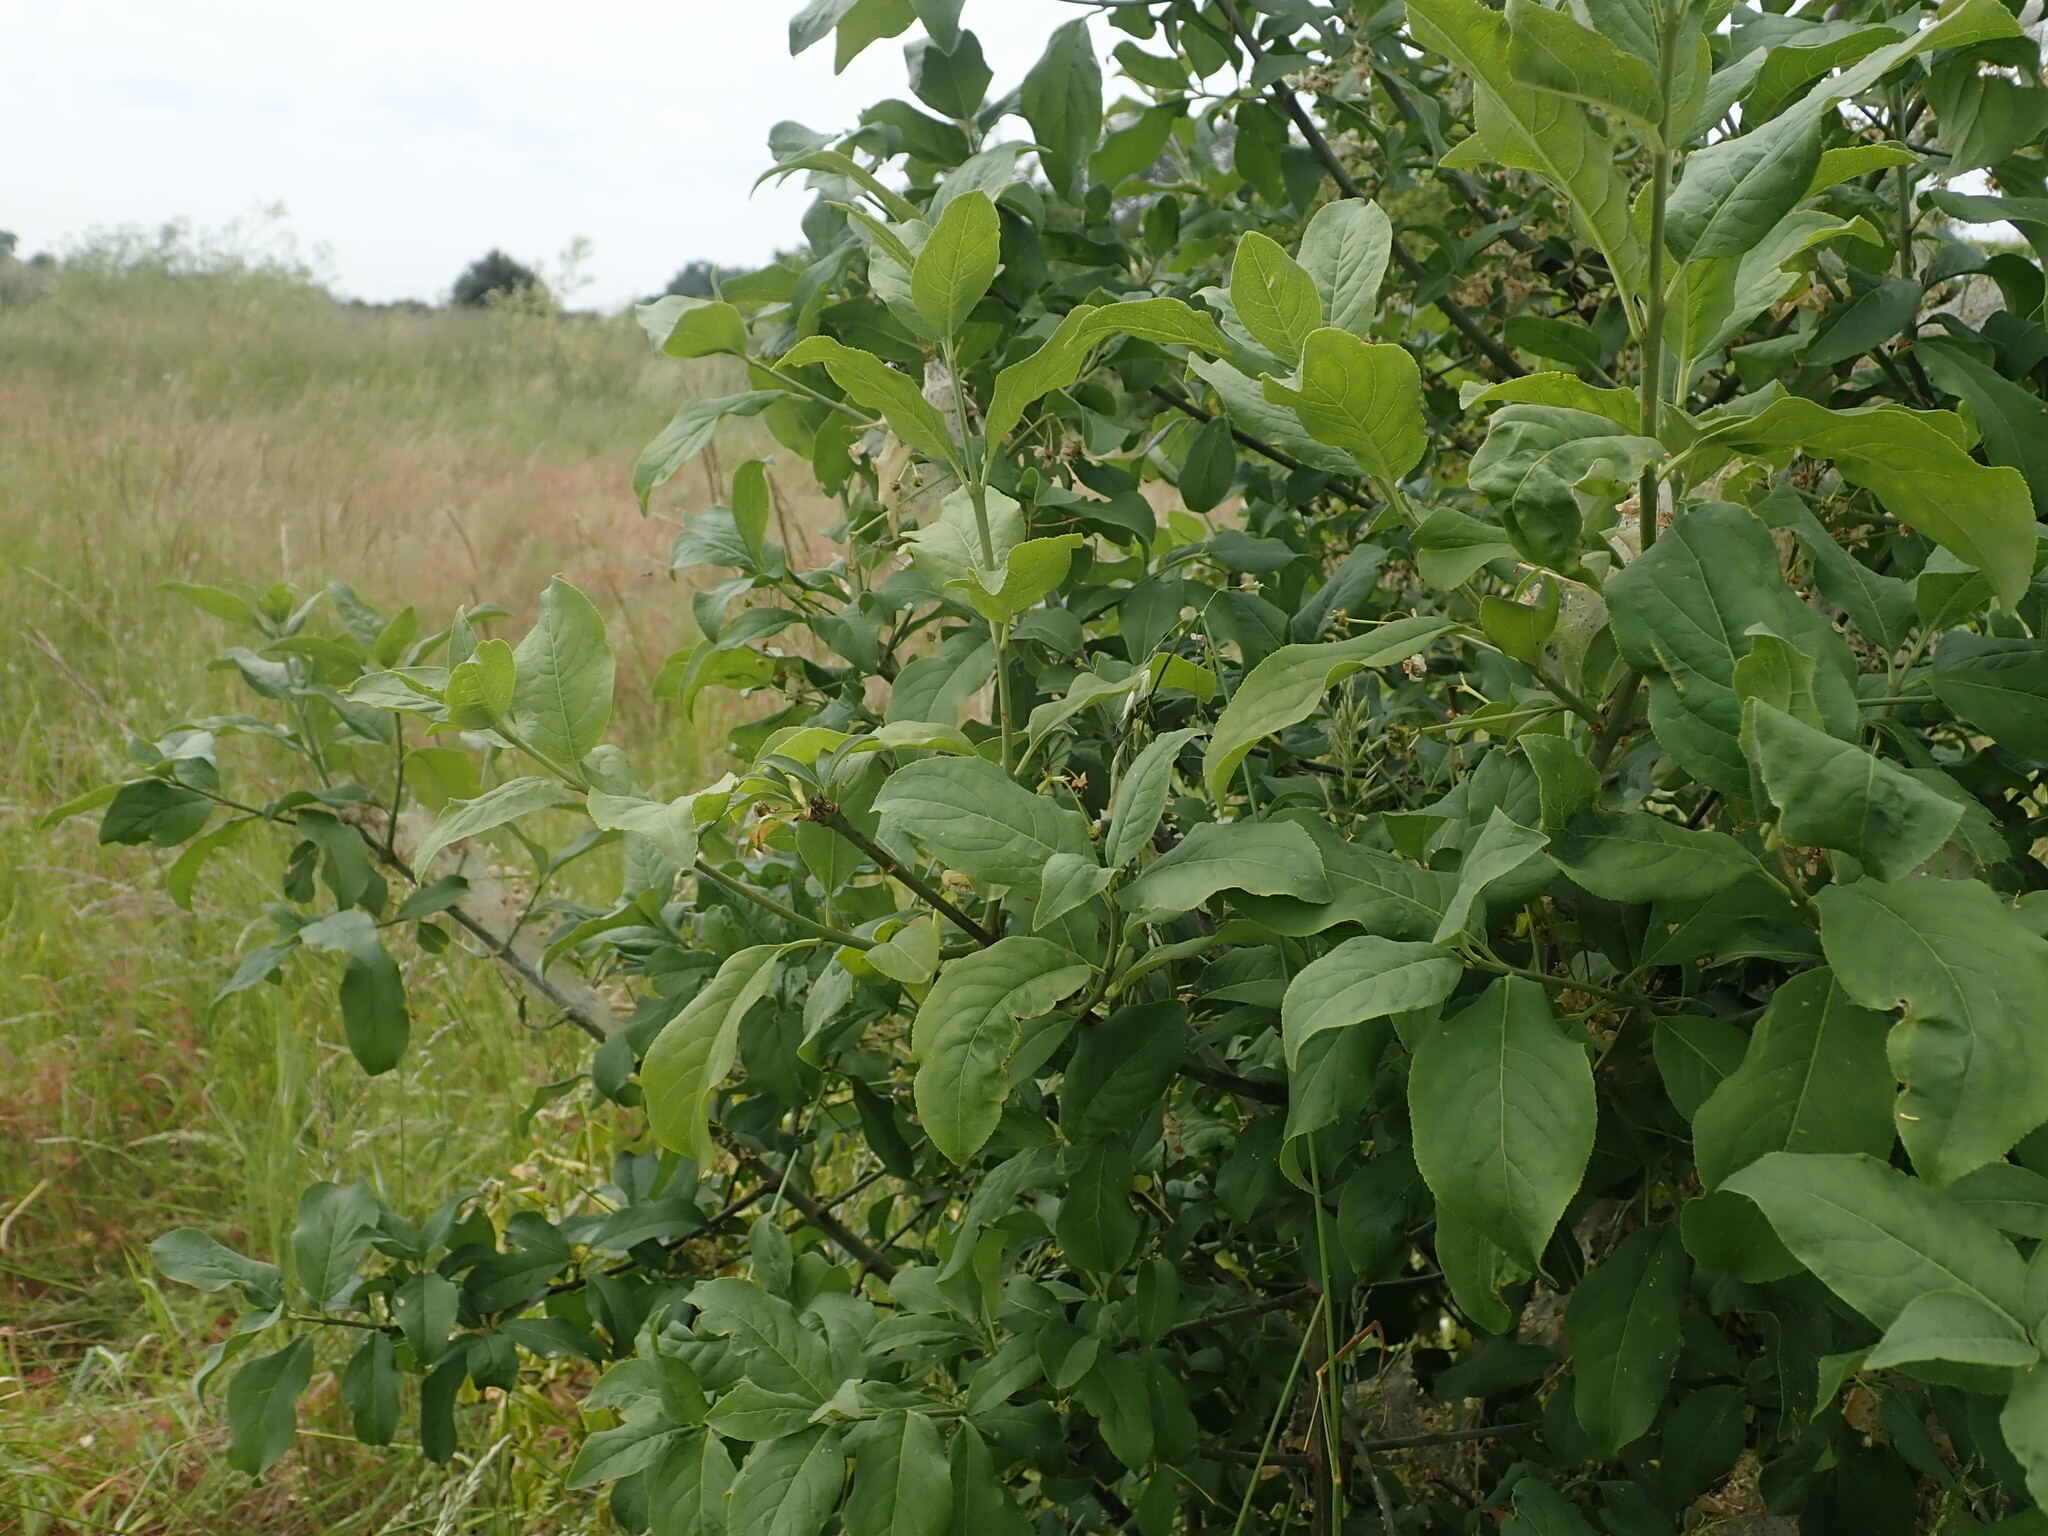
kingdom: Plantae
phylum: Tracheophyta
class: Magnoliopsida
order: Celastrales
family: Celastraceae
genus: Euonymus
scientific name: Euonymus europaeus
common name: Spindle
